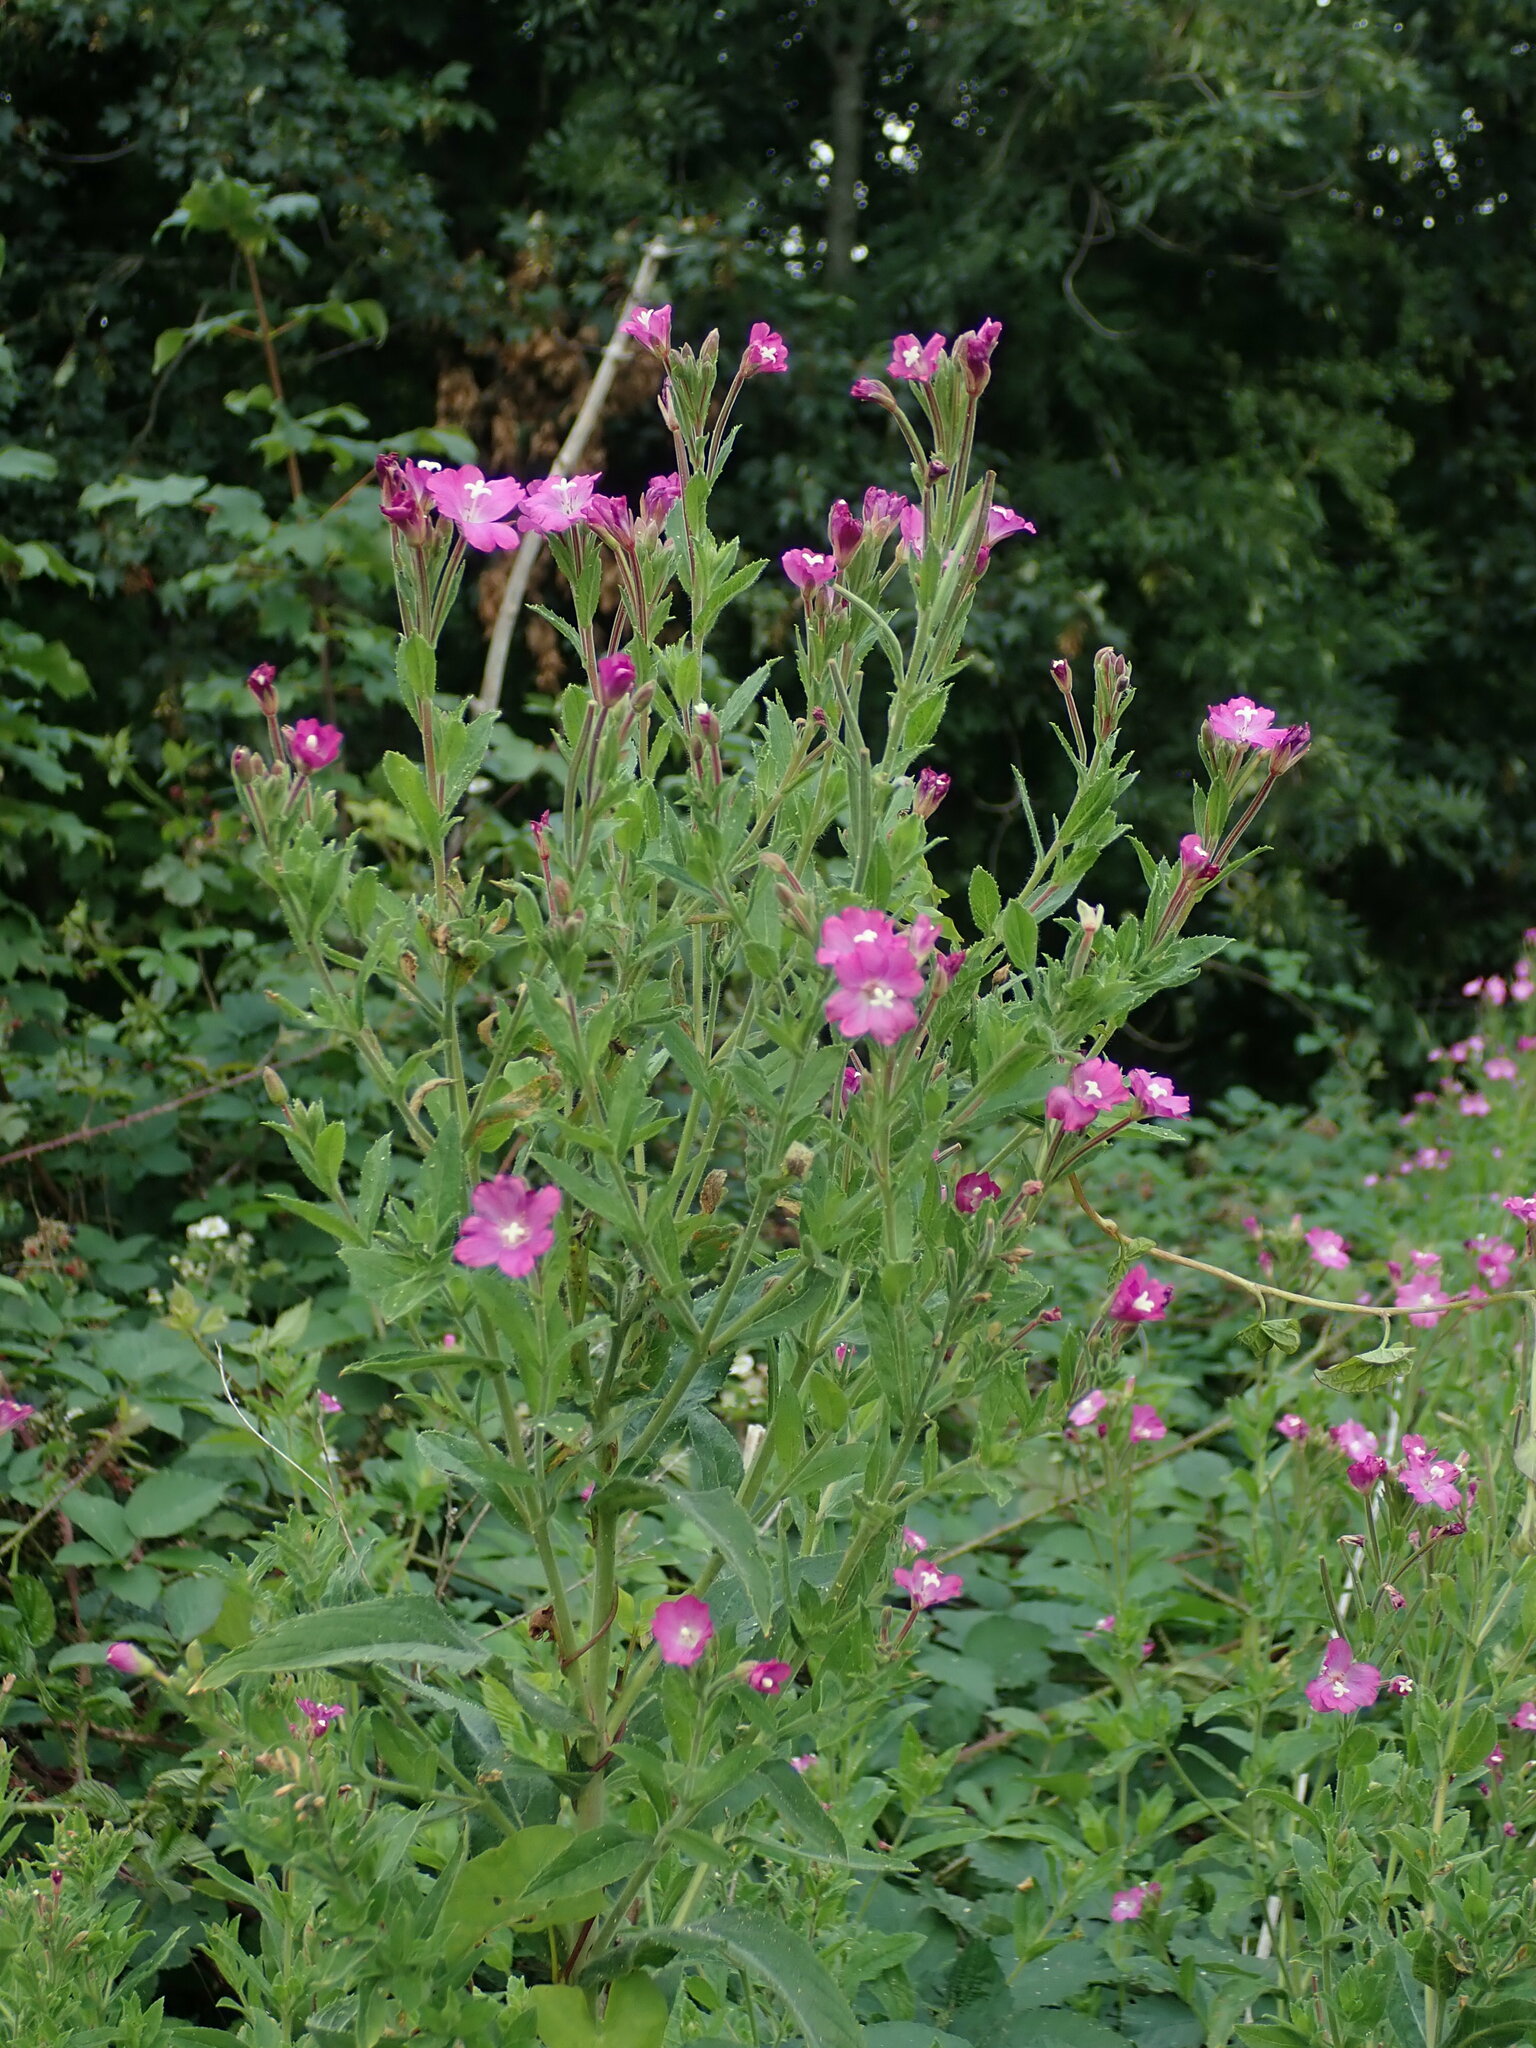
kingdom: Plantae
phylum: Tracheophyta
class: Magnoliopsida
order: Myrtales
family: Onagraceae
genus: Epilobium
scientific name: Epilobium hirsutum
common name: Great willowherb
